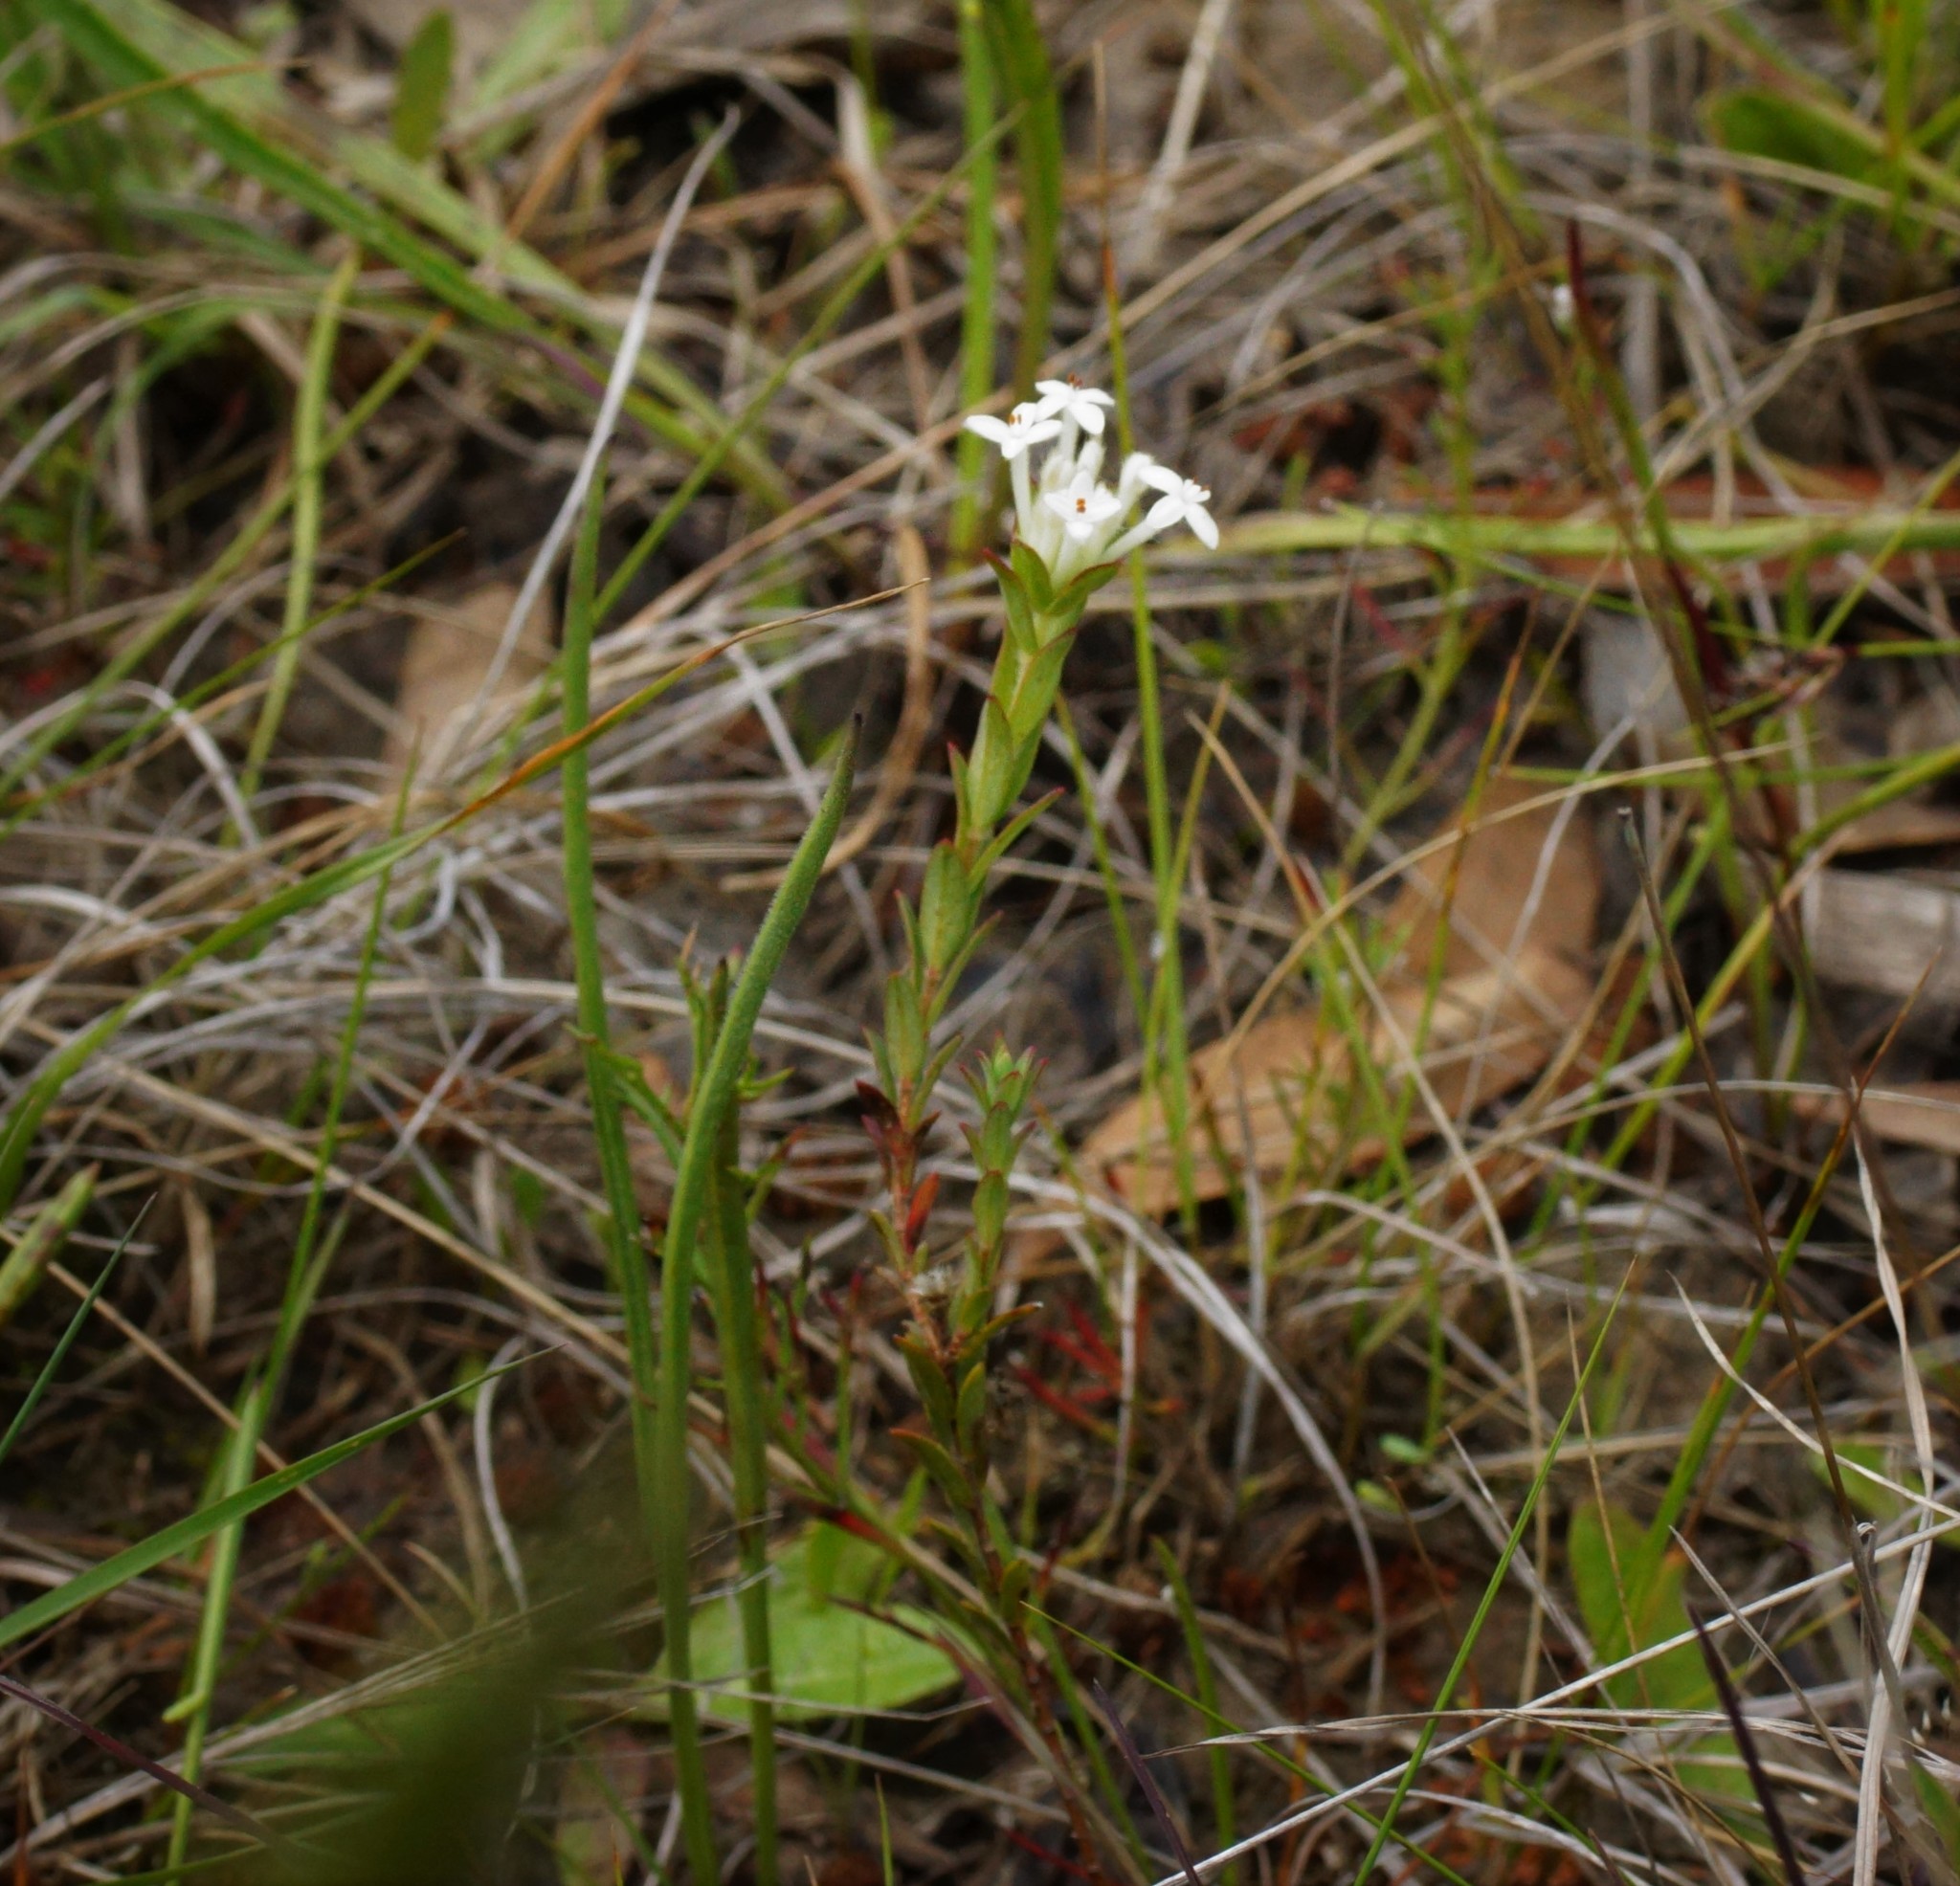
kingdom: Plantae
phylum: Tracheophyta
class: Magnoliopsida
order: Malvales
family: Thymelaeaceae
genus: Pimelea
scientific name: Pimelea humilis
